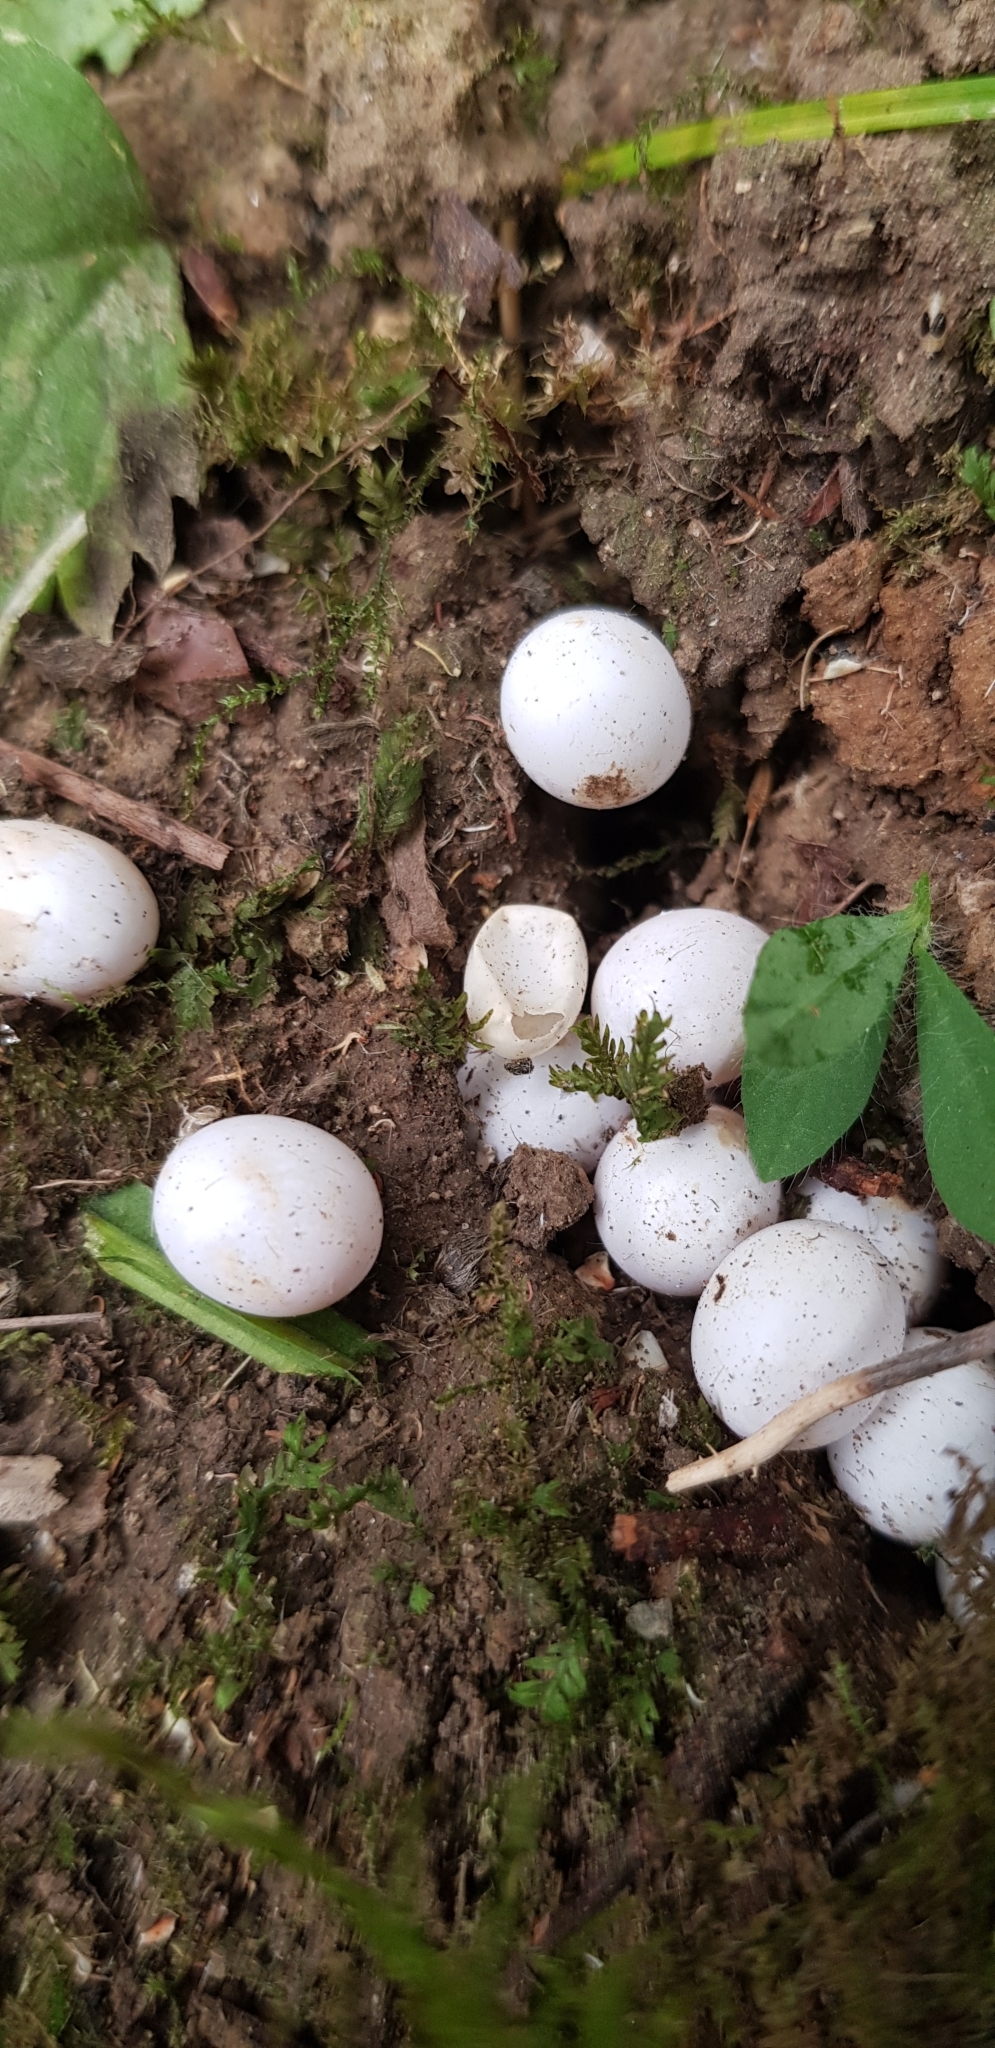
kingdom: Animalia
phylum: Chordata
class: Squamata
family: Scincidae
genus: Lampropholis
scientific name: Lampropholis delicata
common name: Plague skink
